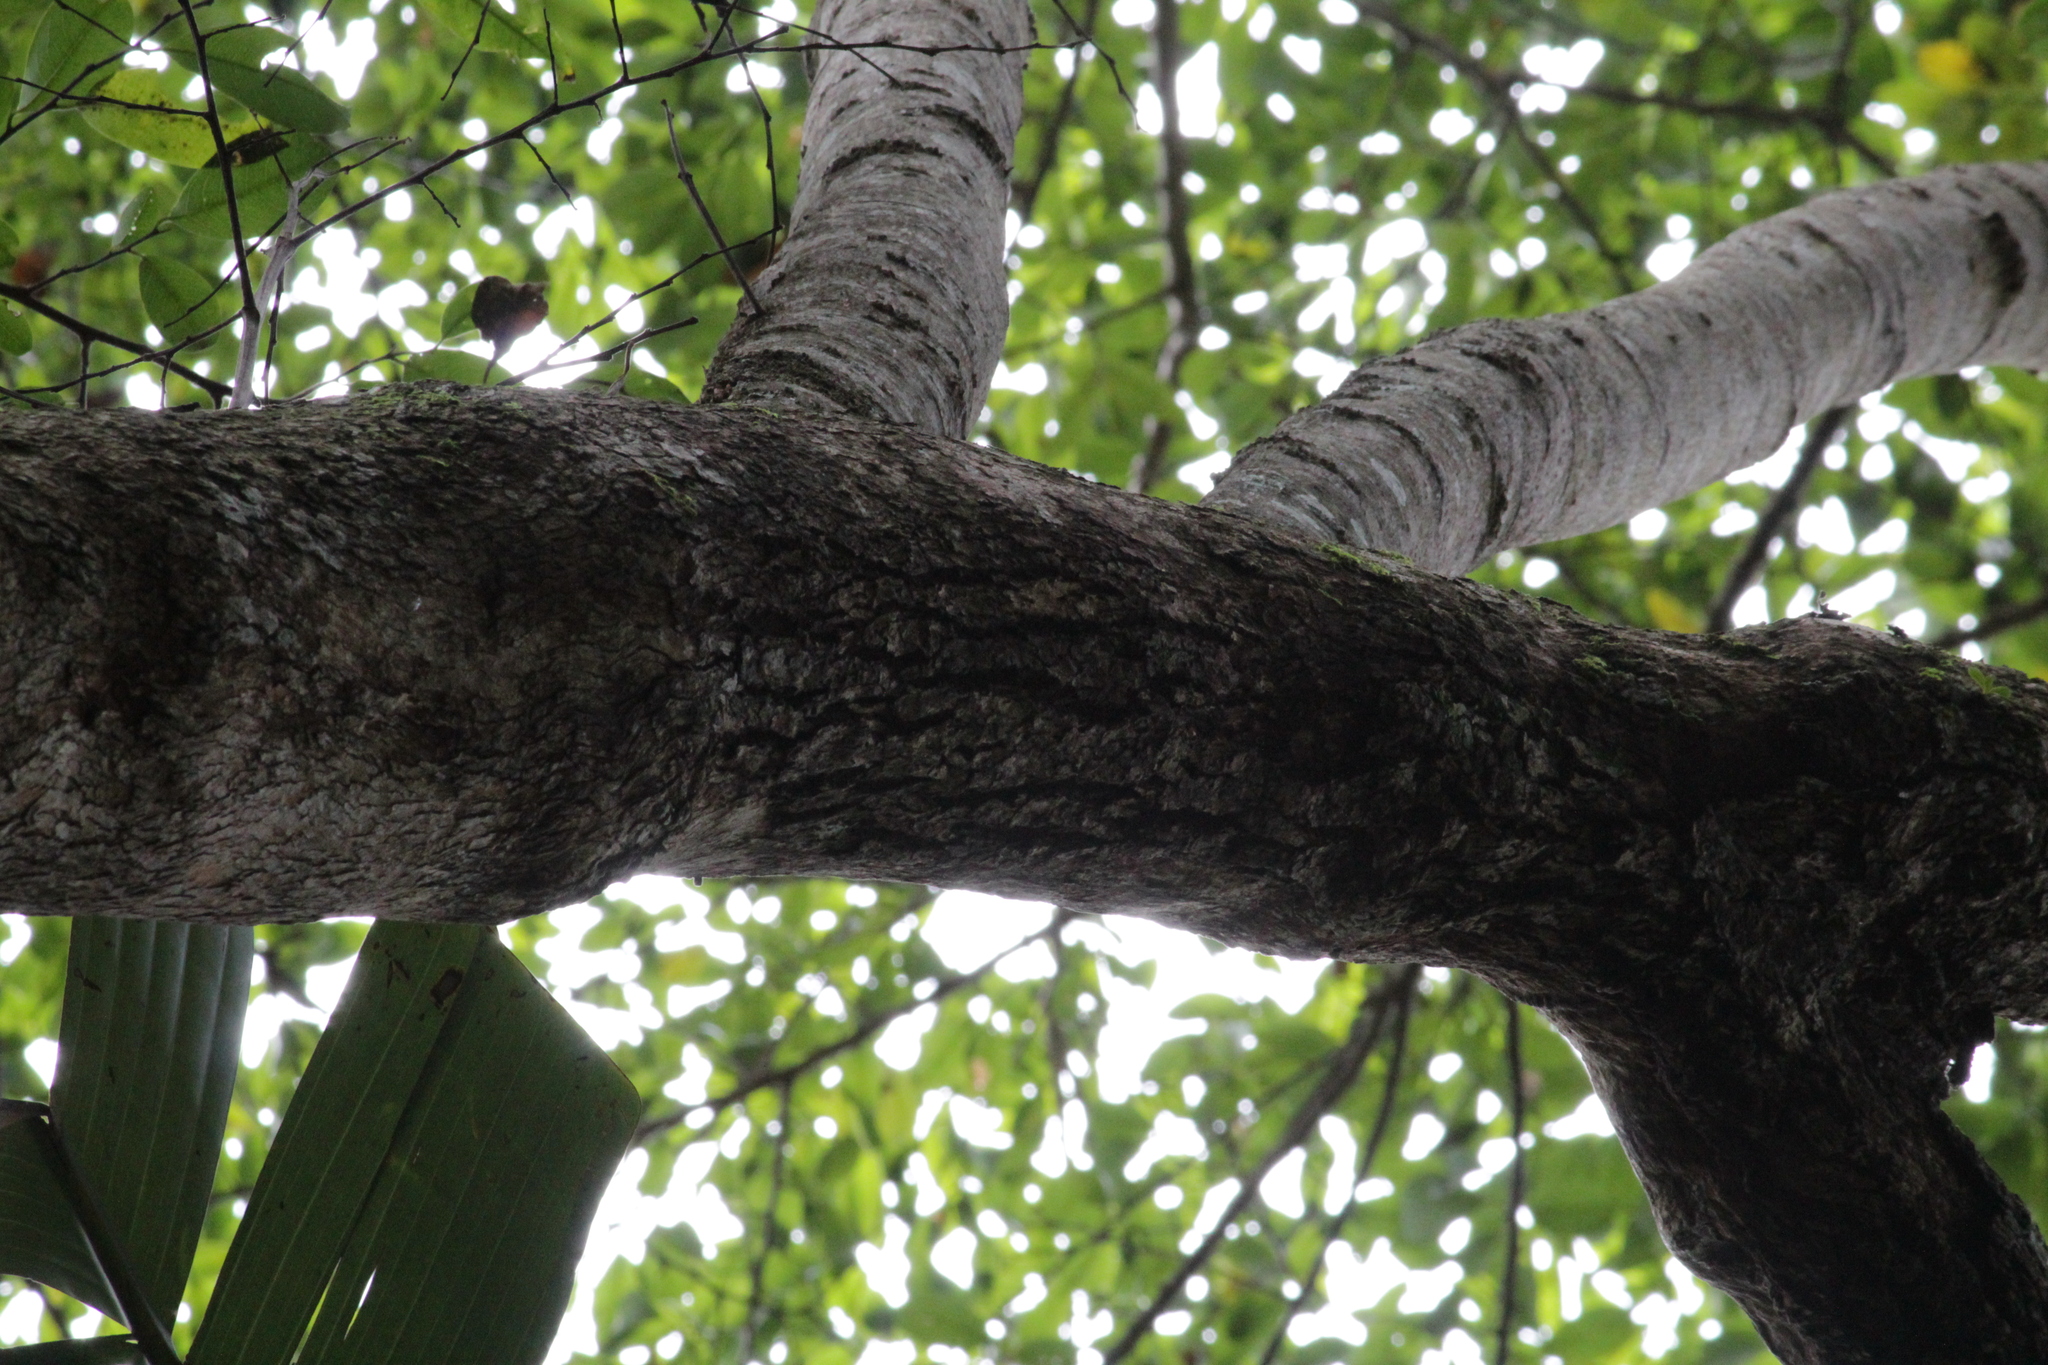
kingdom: Plantae
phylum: Tracheophyta
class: Magnoliopsida
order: Malpighiales
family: Phyllanthaceae
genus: Margaritaria
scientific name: Margaritaria discoidea
